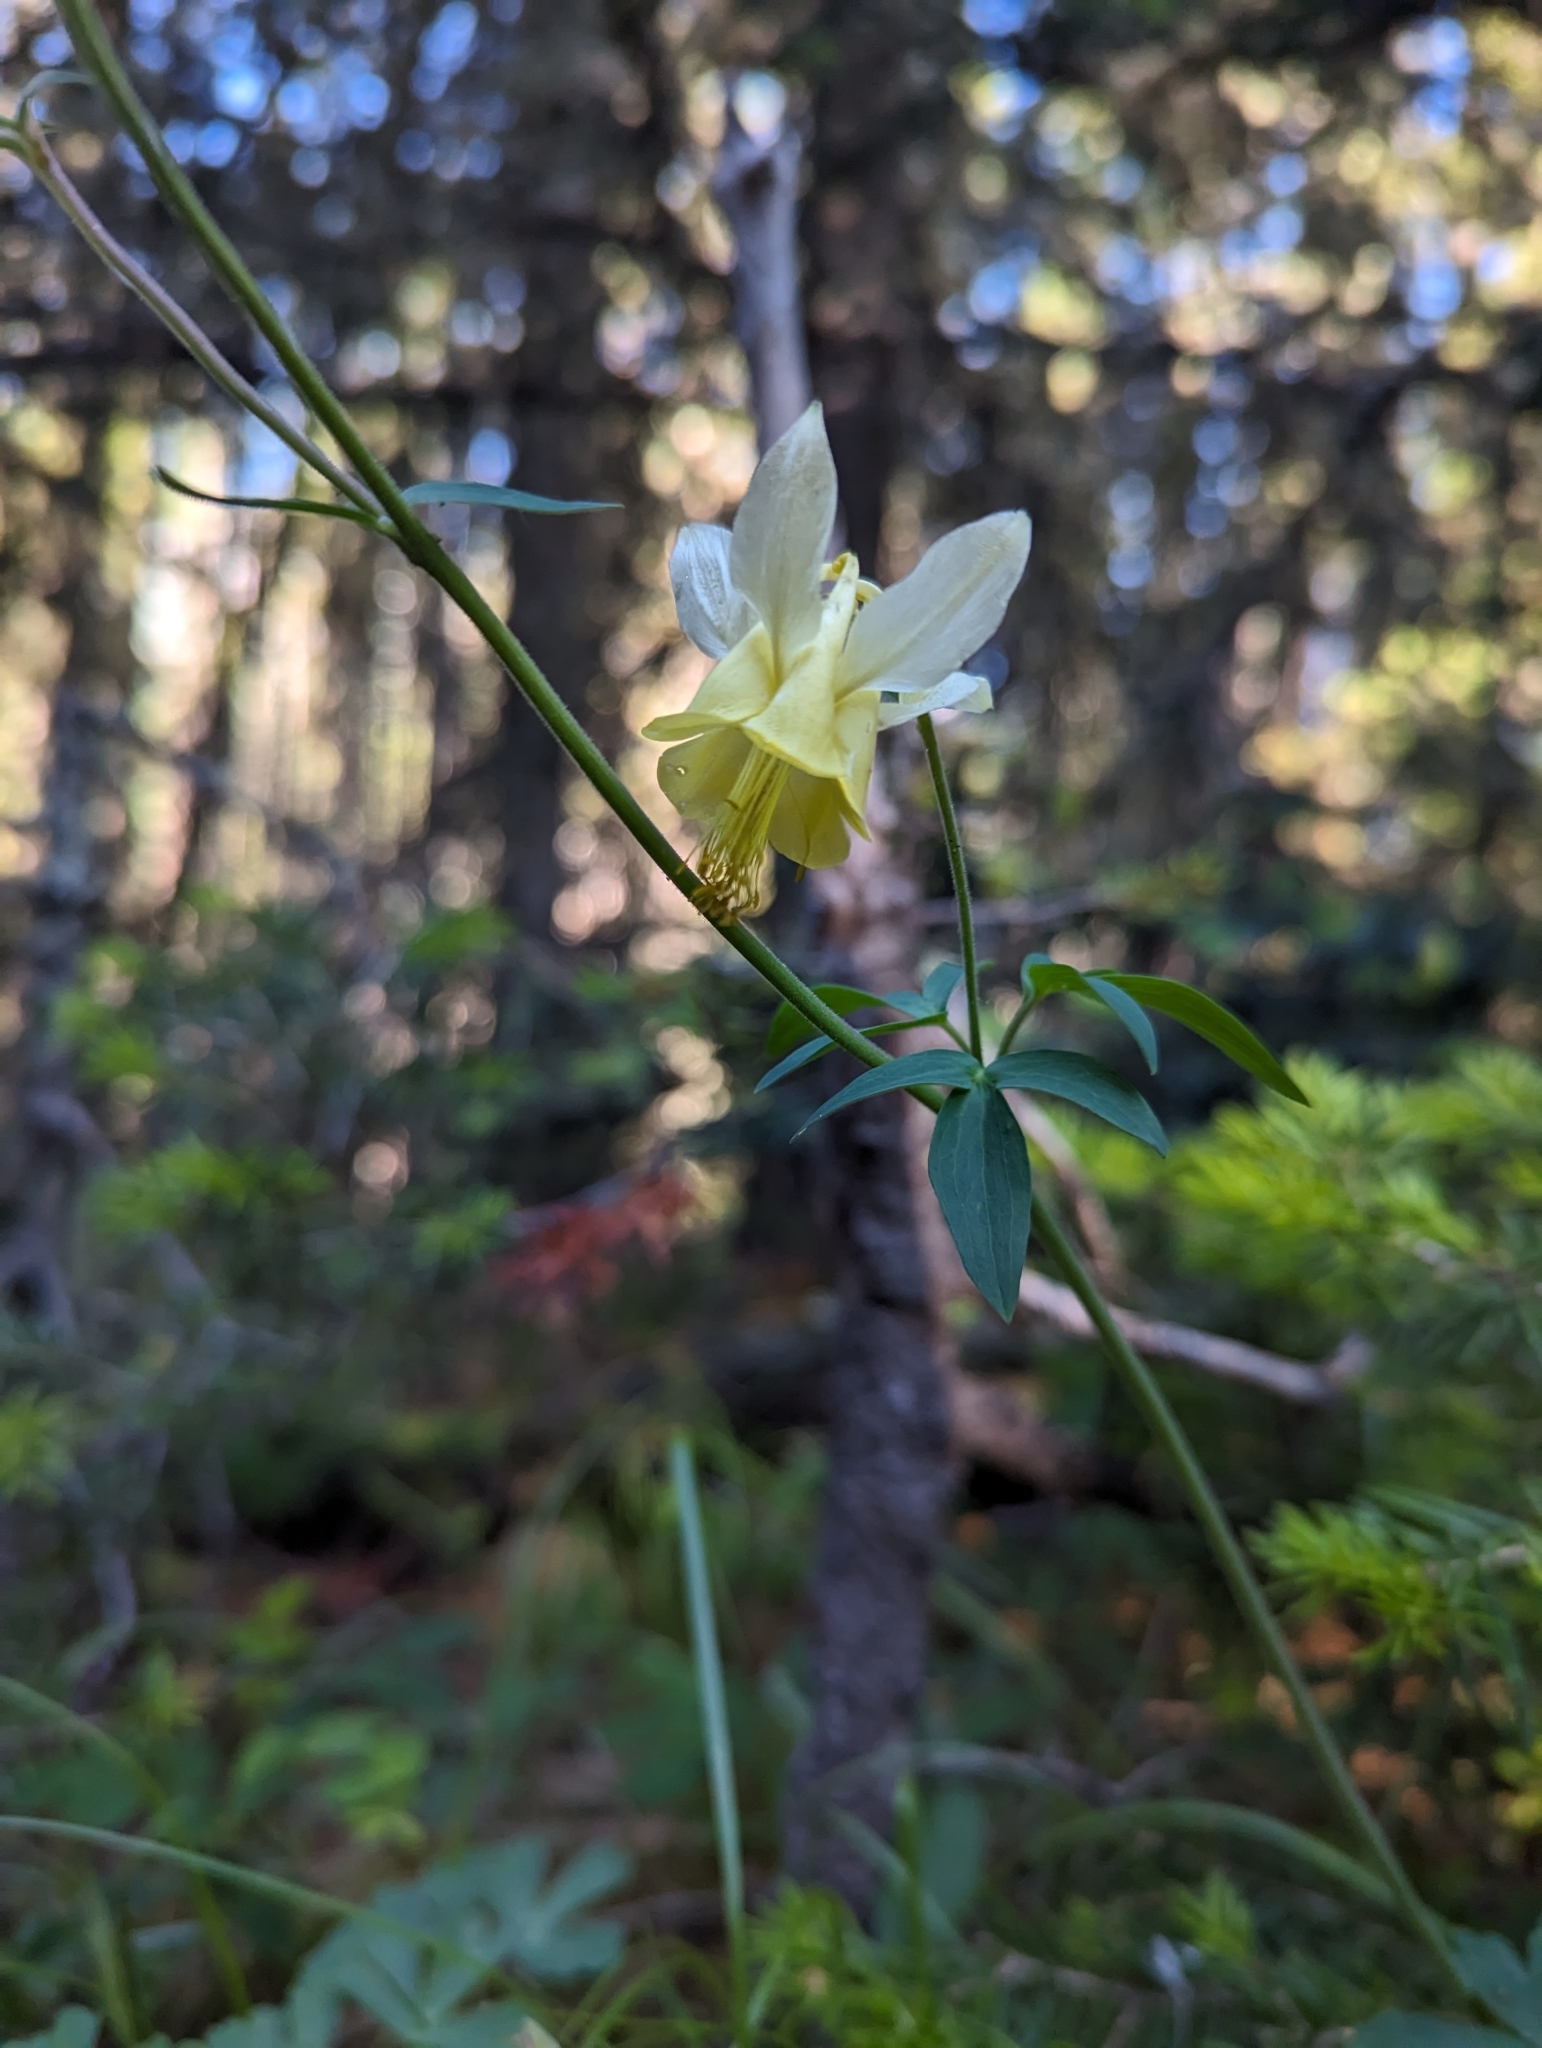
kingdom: Plantae
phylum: Tracheophyta
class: Magnoliopsida
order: Ranunculales
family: Ranunculaceae
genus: Aquilegia
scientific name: Aquilegia flavescens
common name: Yellow columbine
